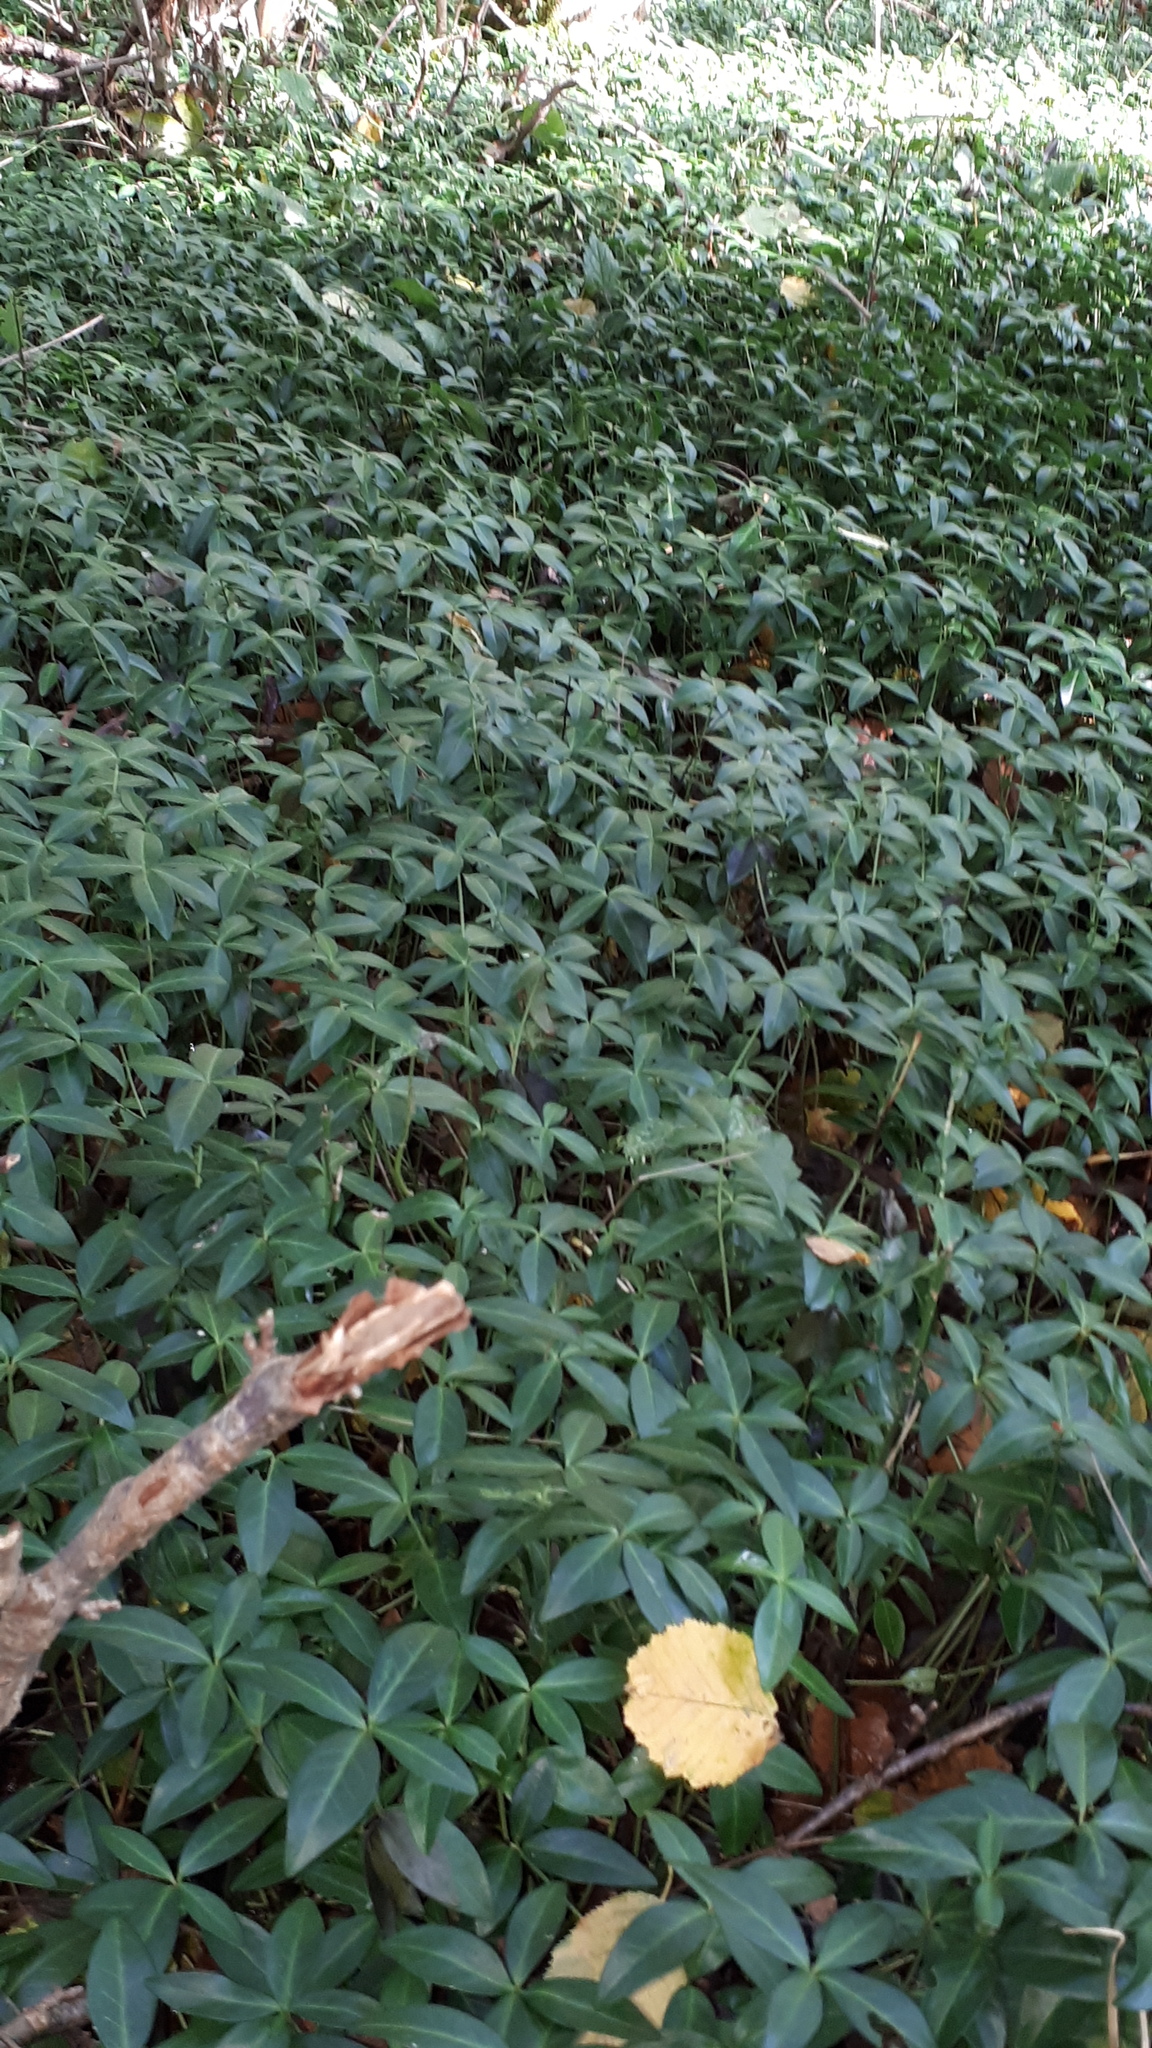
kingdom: Plantae
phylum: Tracheophyta
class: Magnoliopsida
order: Gentianales
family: Apocynaceae
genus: Vinca
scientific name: Vinca minor
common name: Lesser periwinkle
